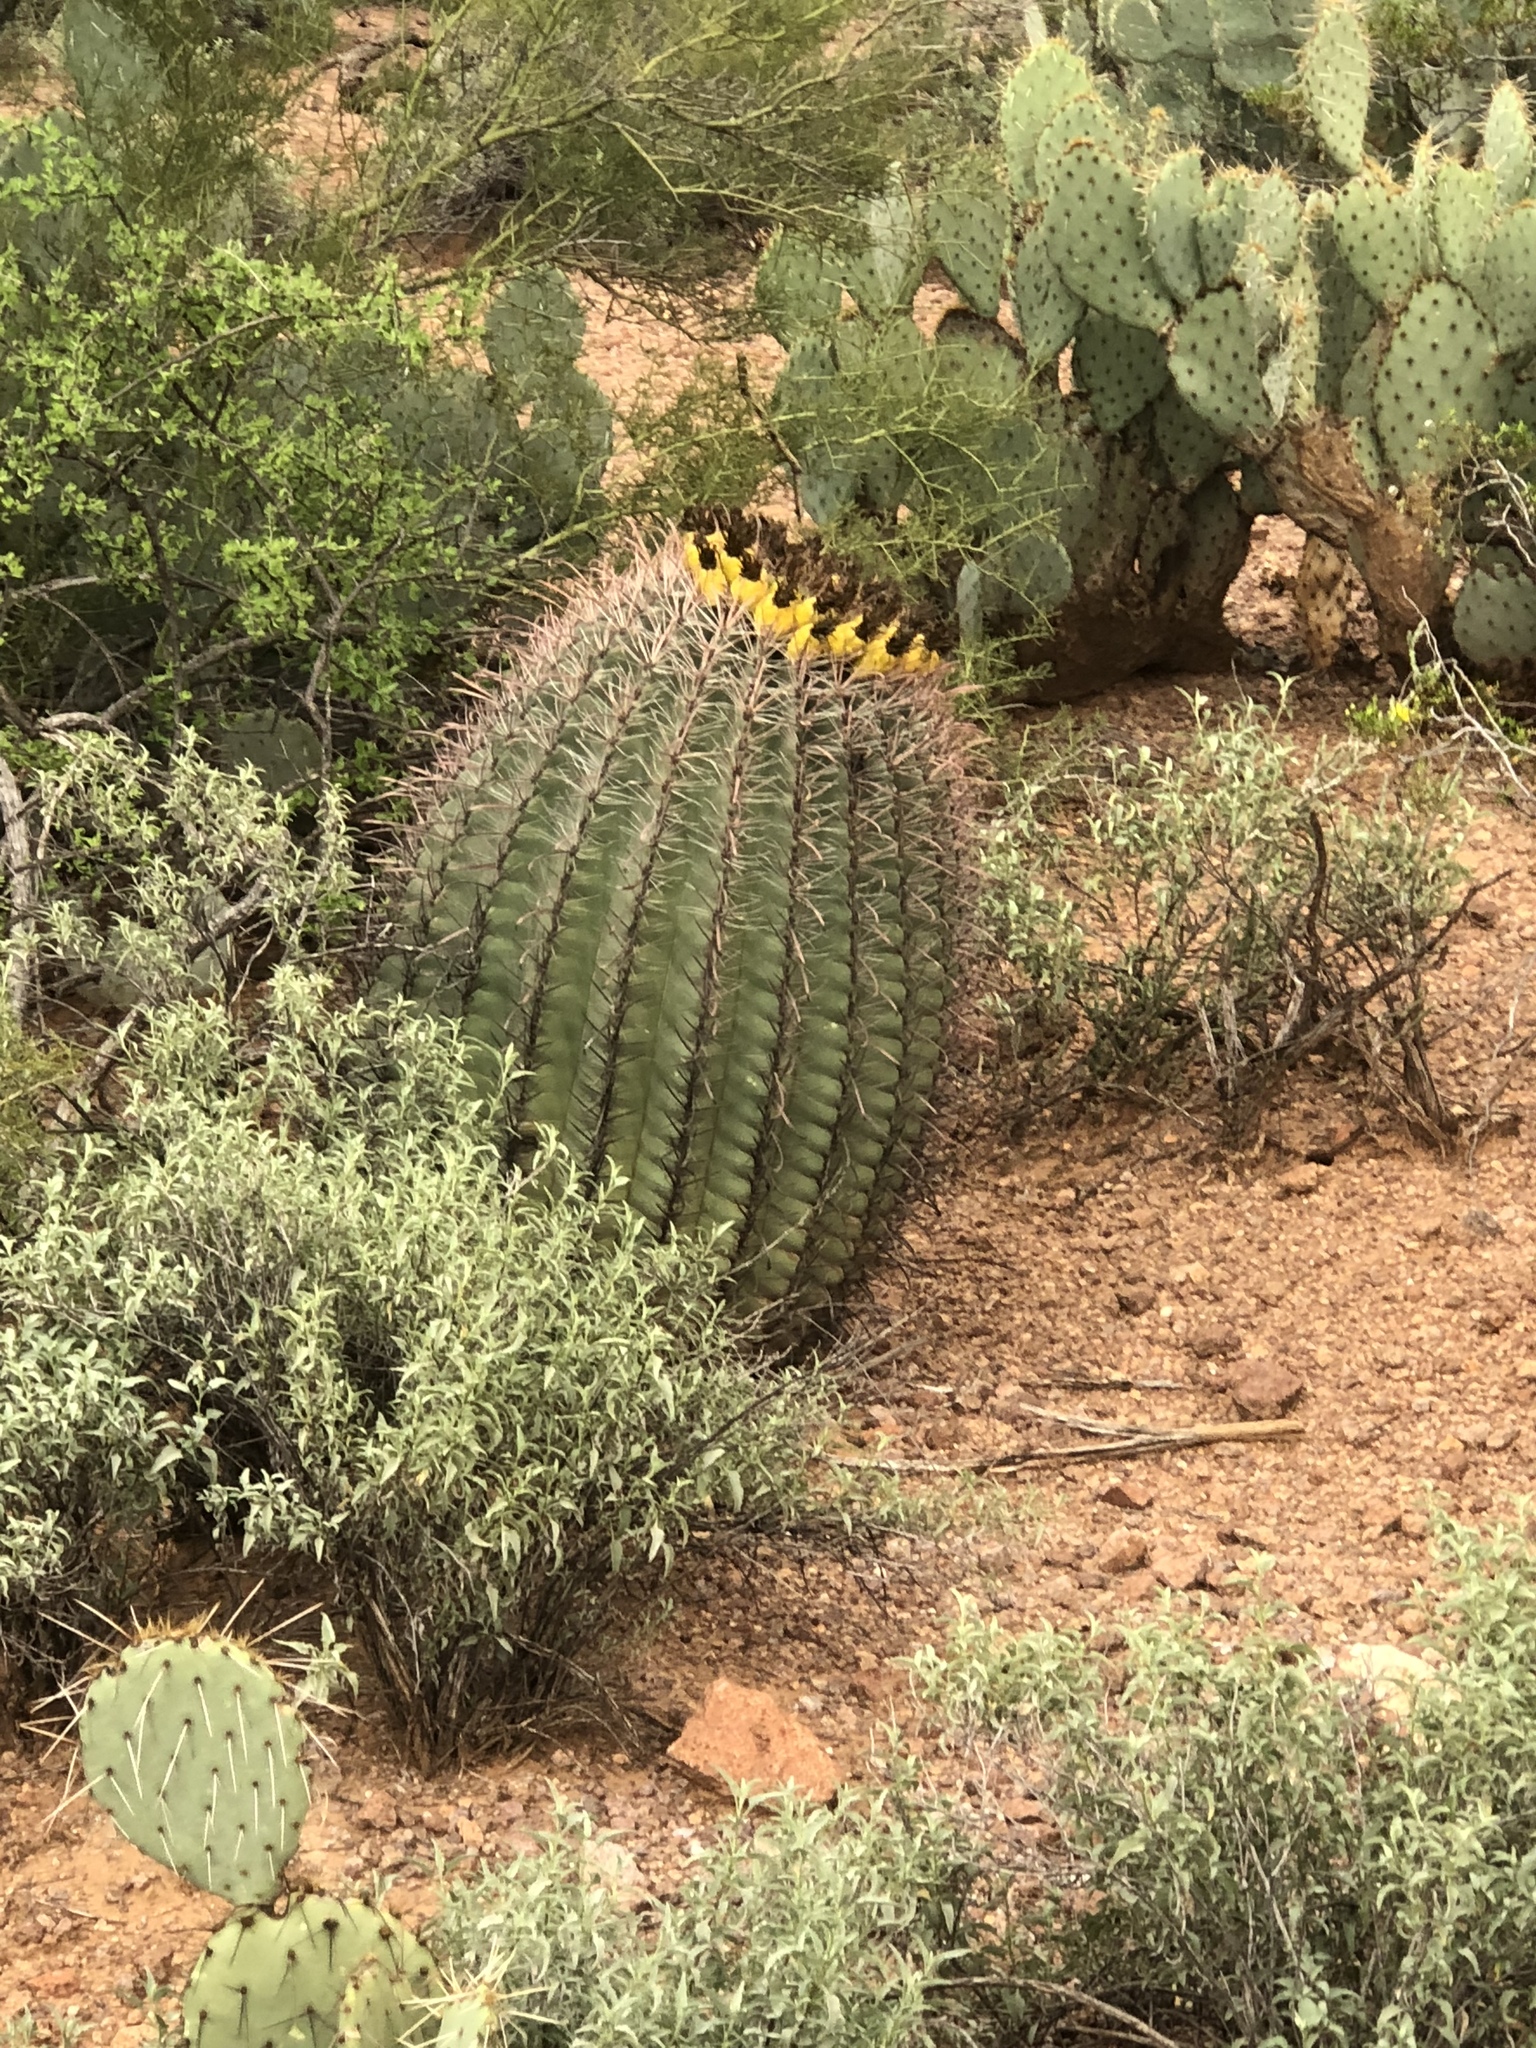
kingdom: Plantae
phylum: Tracheophyta
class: Magnoliopsida
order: Caryophyllales
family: Cactaceae
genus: Ferocactus
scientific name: Ferocactus wislizeni
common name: Candy barrel cactus
